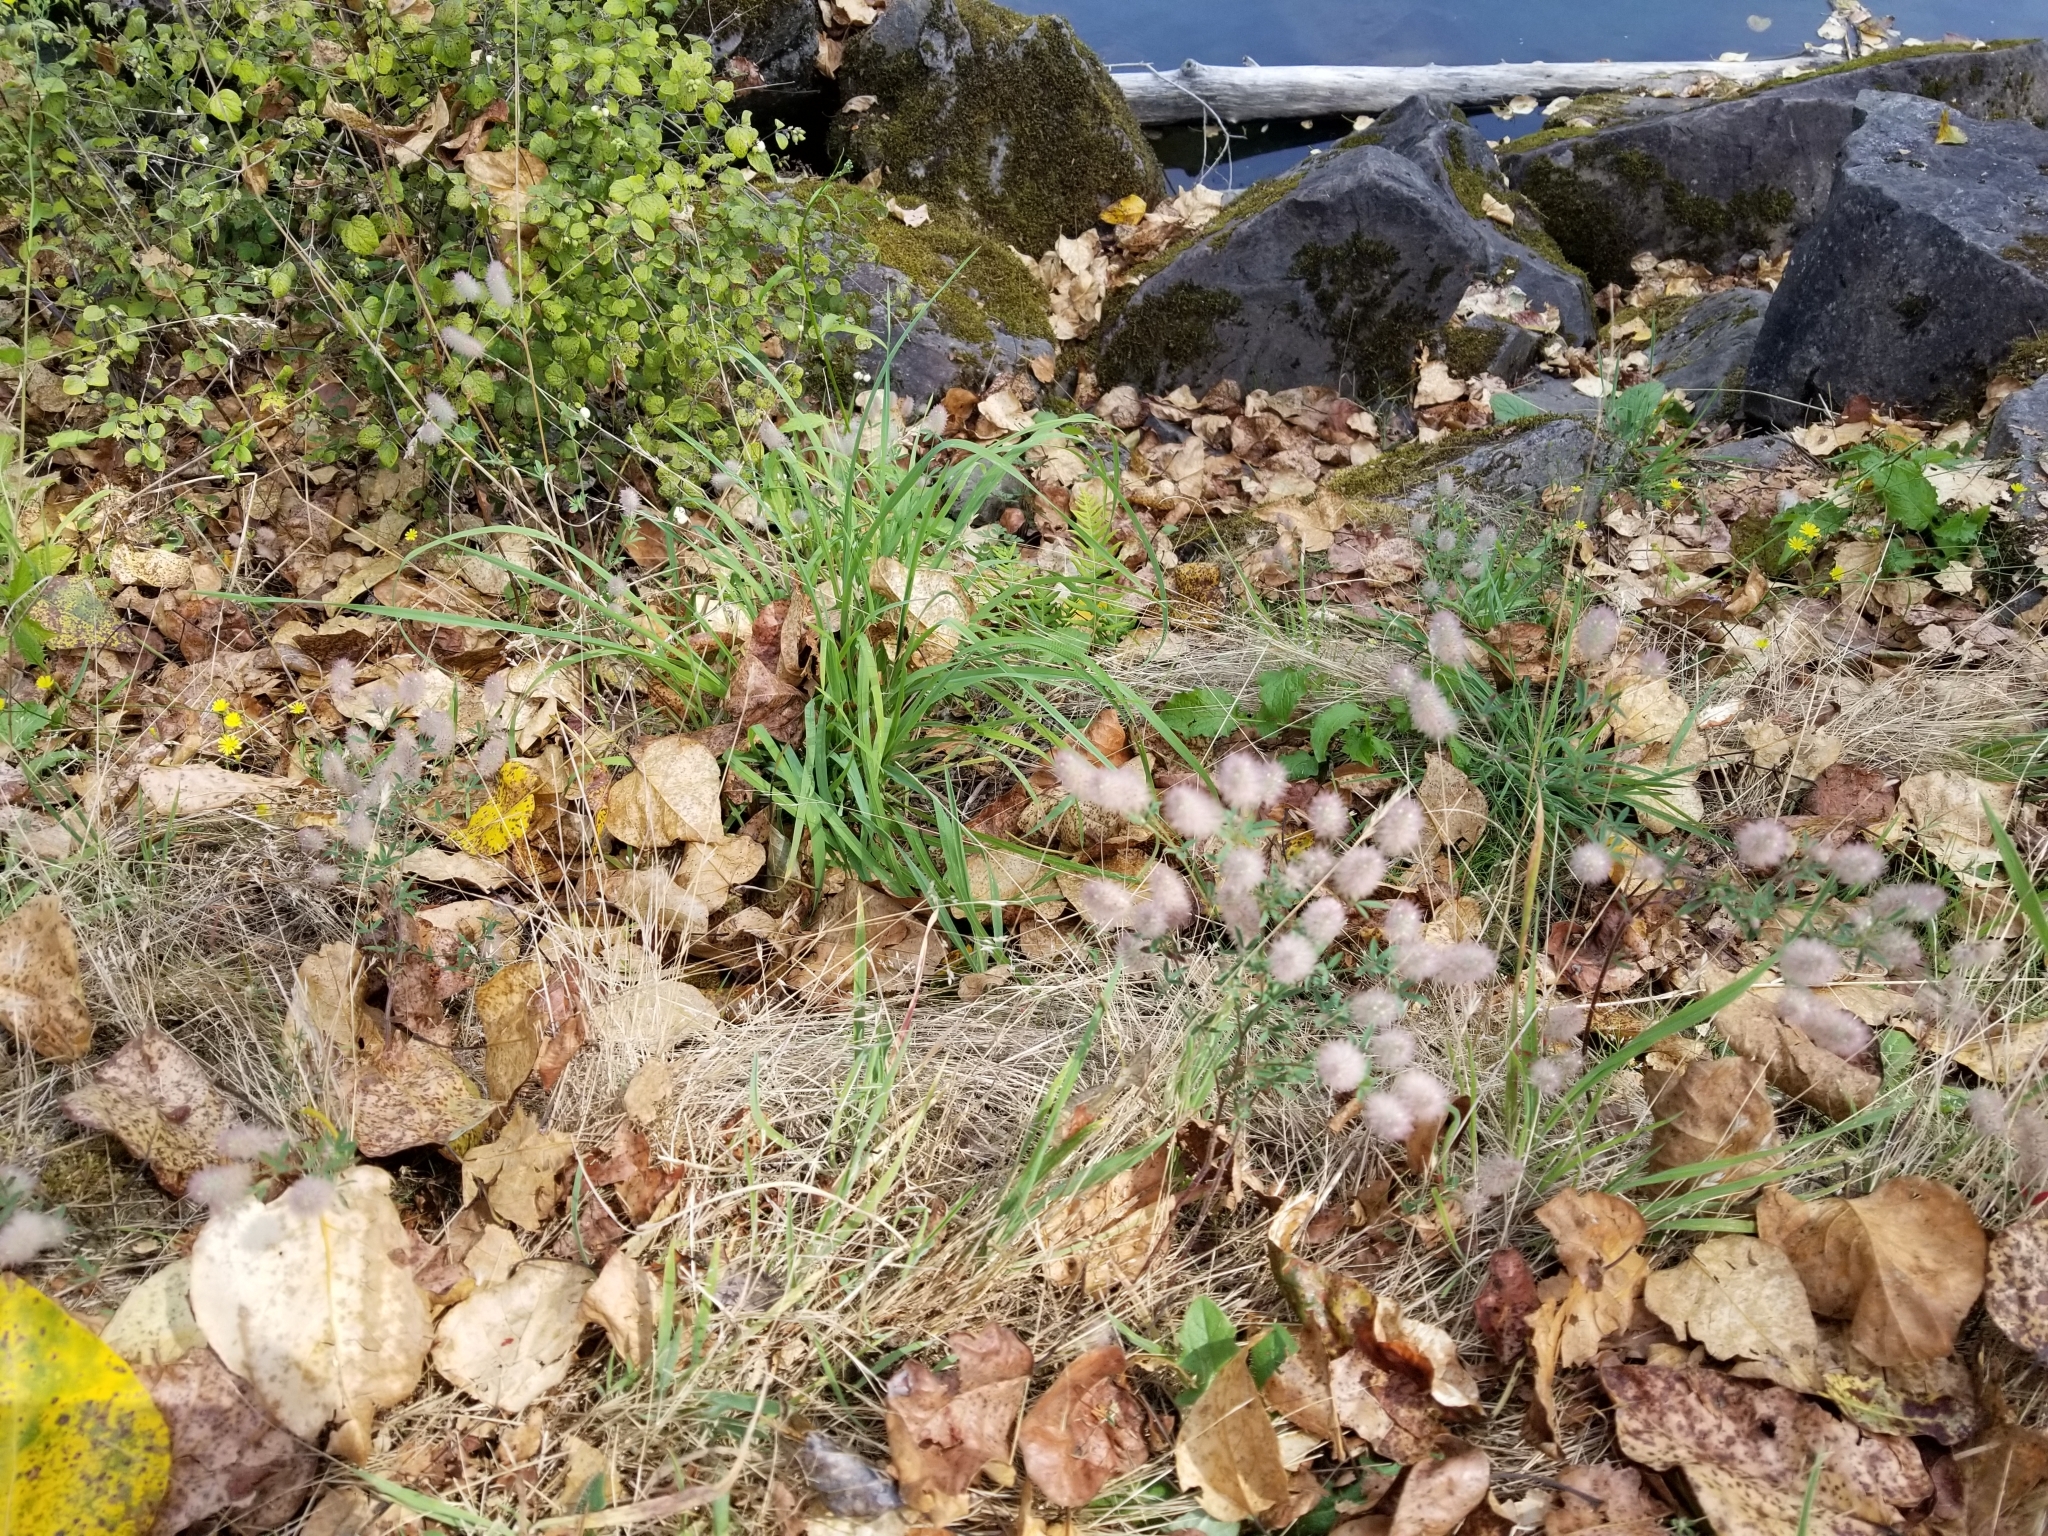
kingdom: Plantae
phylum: Tracheophyta
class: Magnoliopsida
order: Fabales
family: Fabaceae
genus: Trifolium
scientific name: Trifolium arvense
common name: Hare's-foot clover
